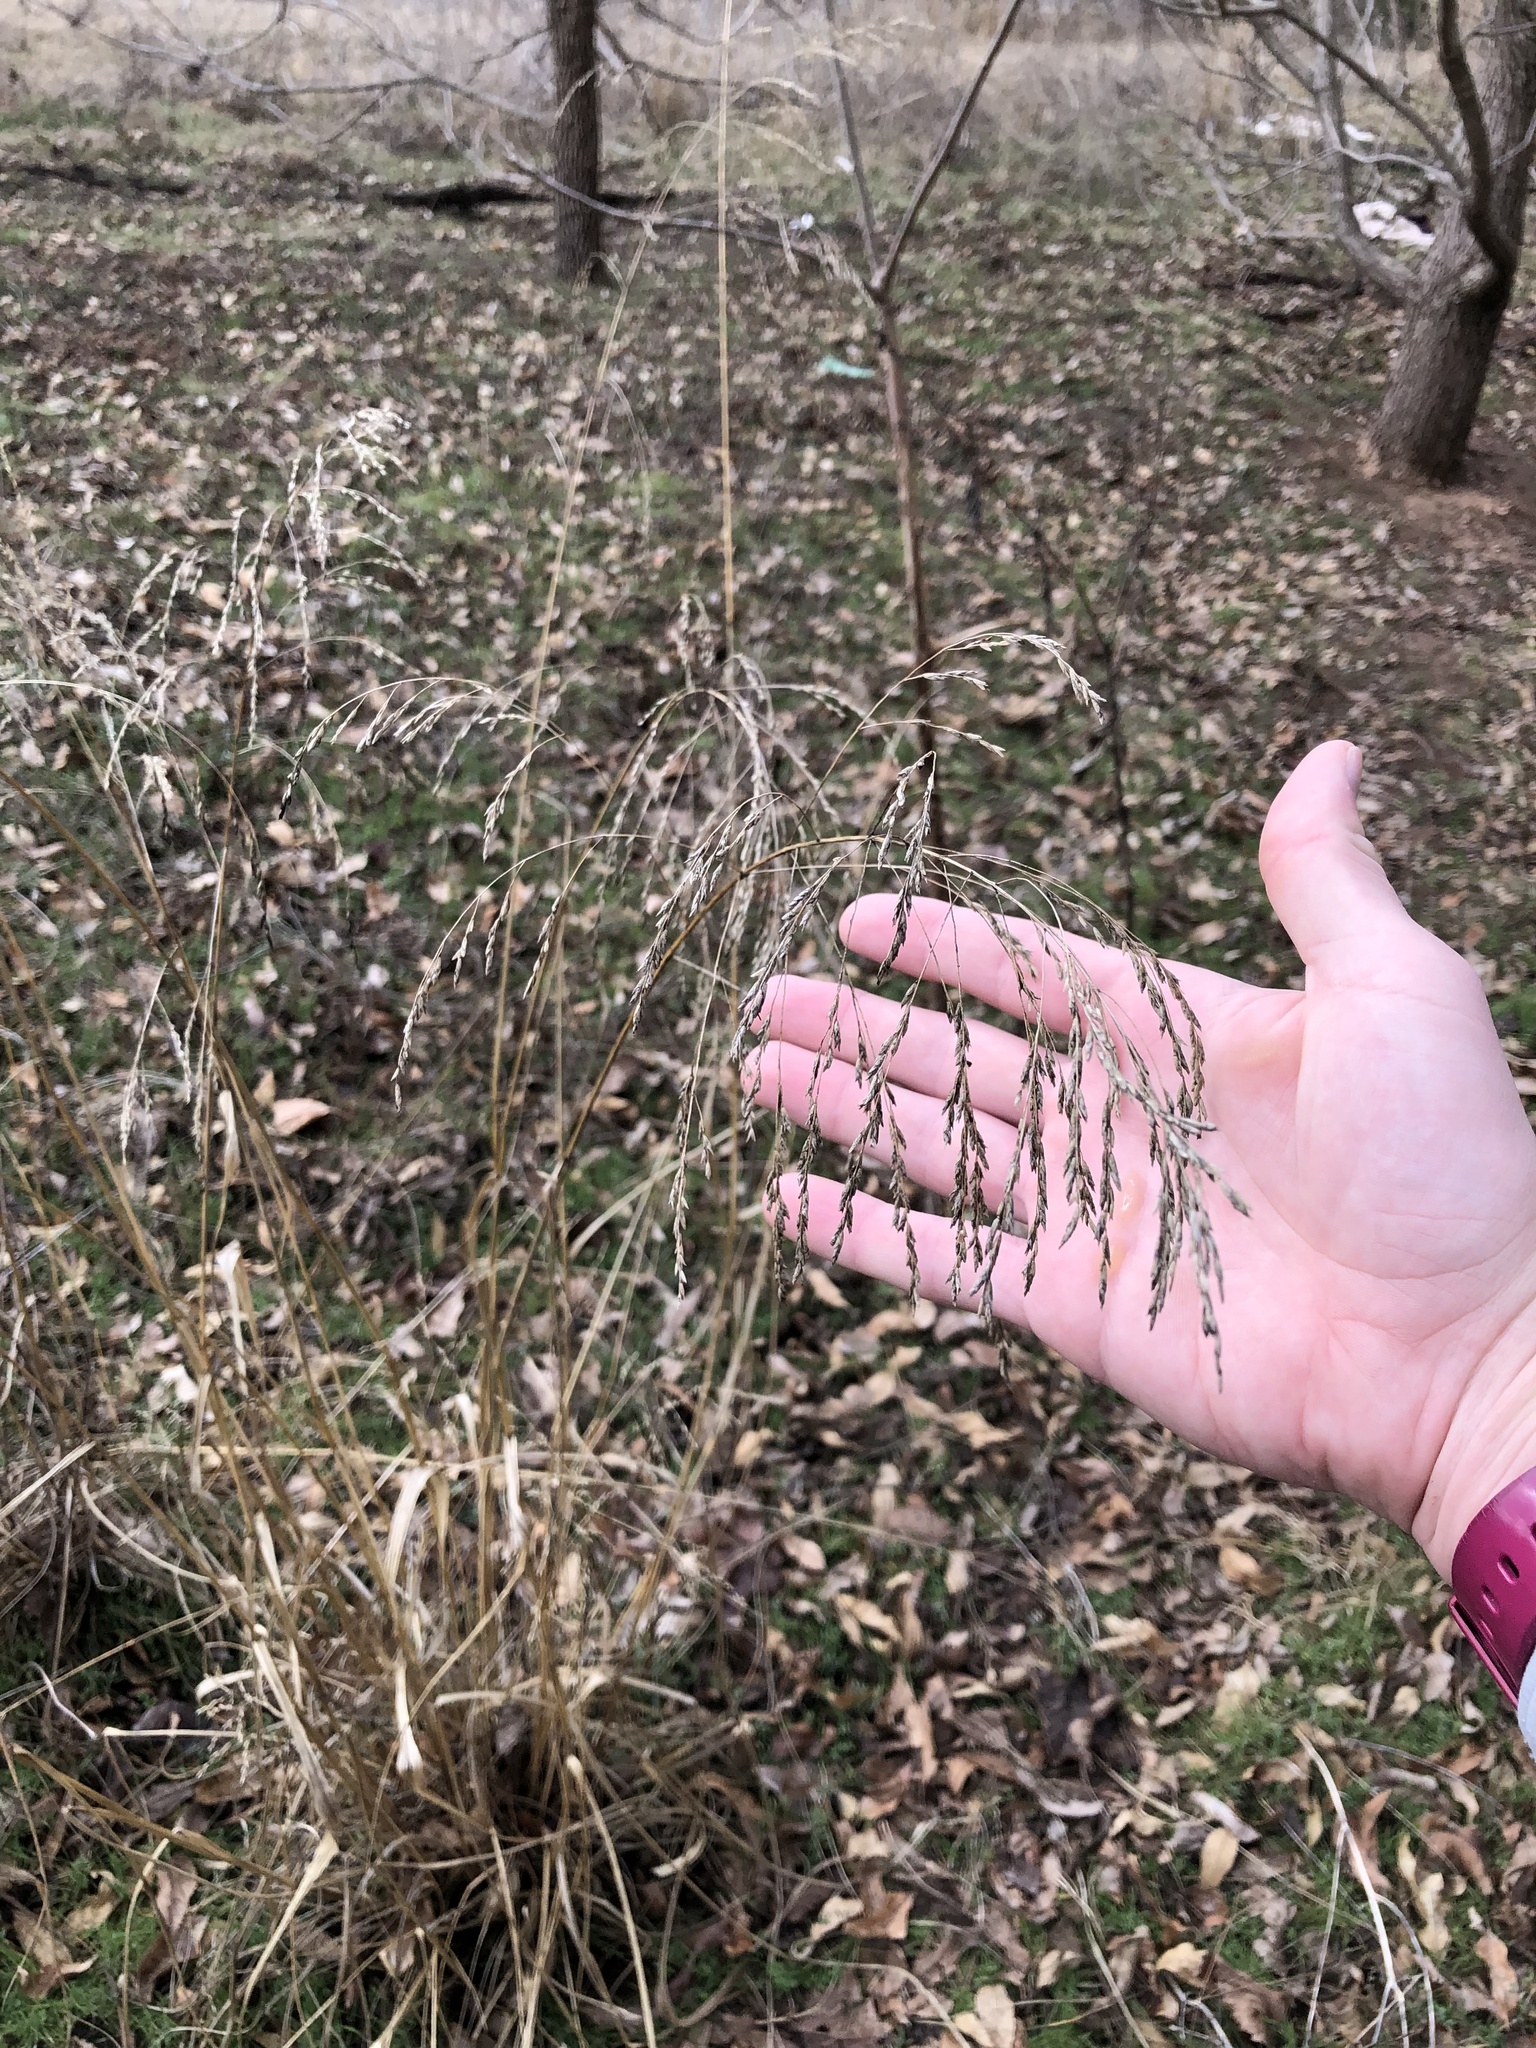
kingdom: Plantae
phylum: Tracheophyta
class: Liliopsida
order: Poales
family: Poaceae
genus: Tridens
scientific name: Tridens flavus
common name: Purpletop
